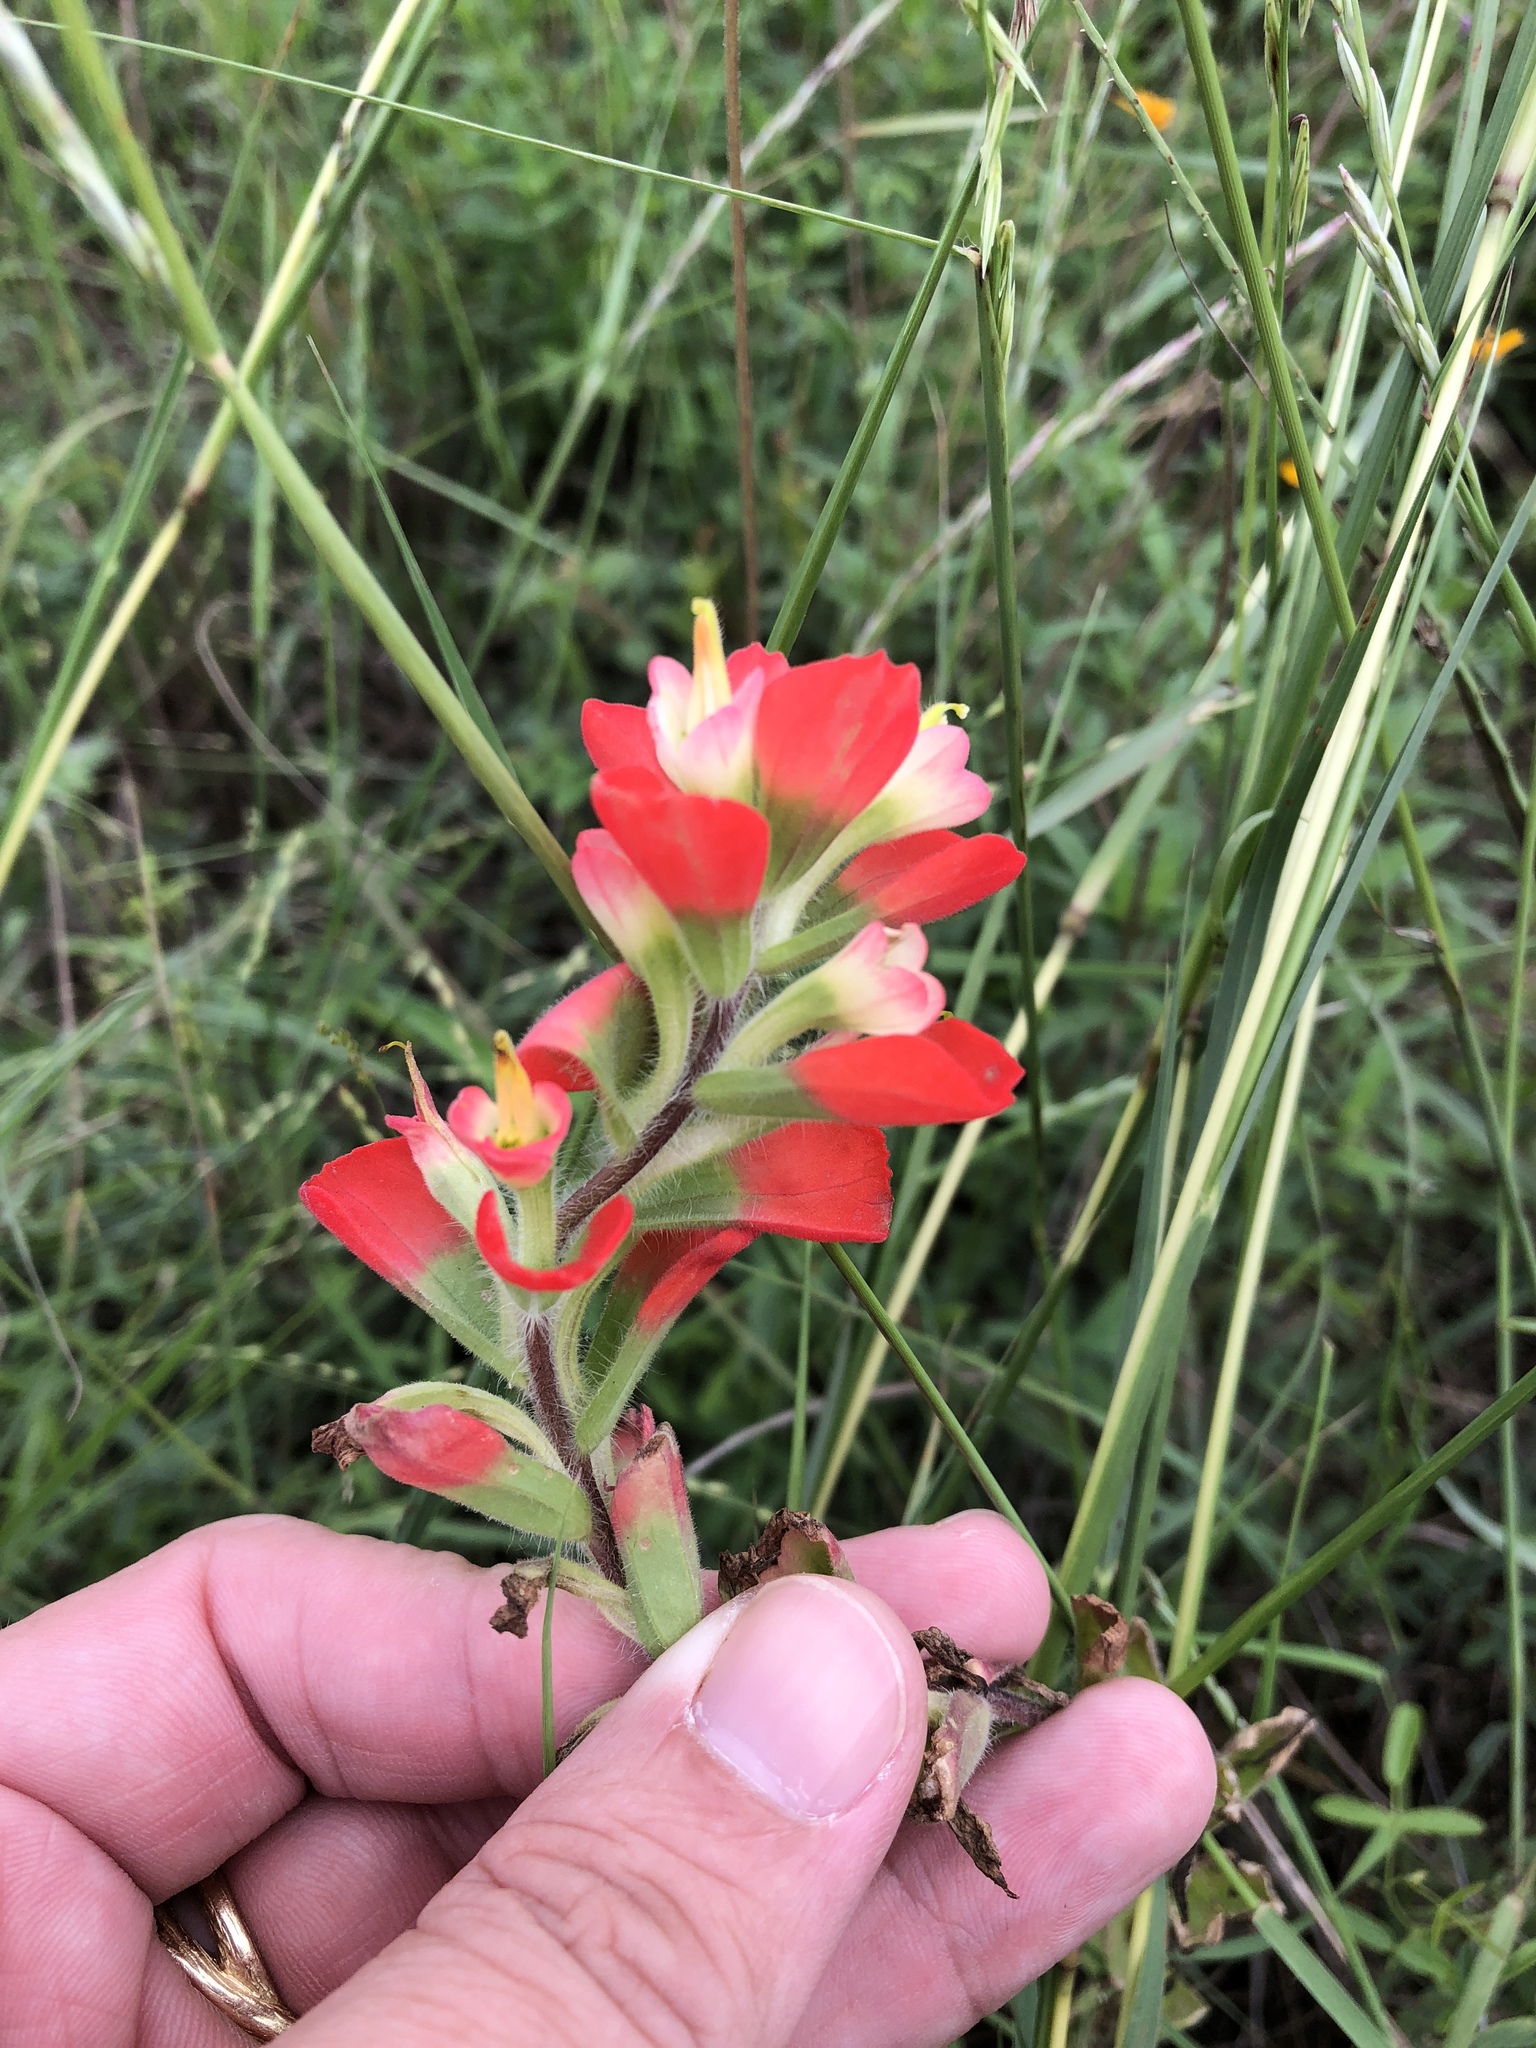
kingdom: Plantae
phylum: Tracheophyta
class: Magnoliopsida
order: Lamiales
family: Orobanchaceae
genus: Castilleja
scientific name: Castilleja indivisa
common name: Texas paintbrush
